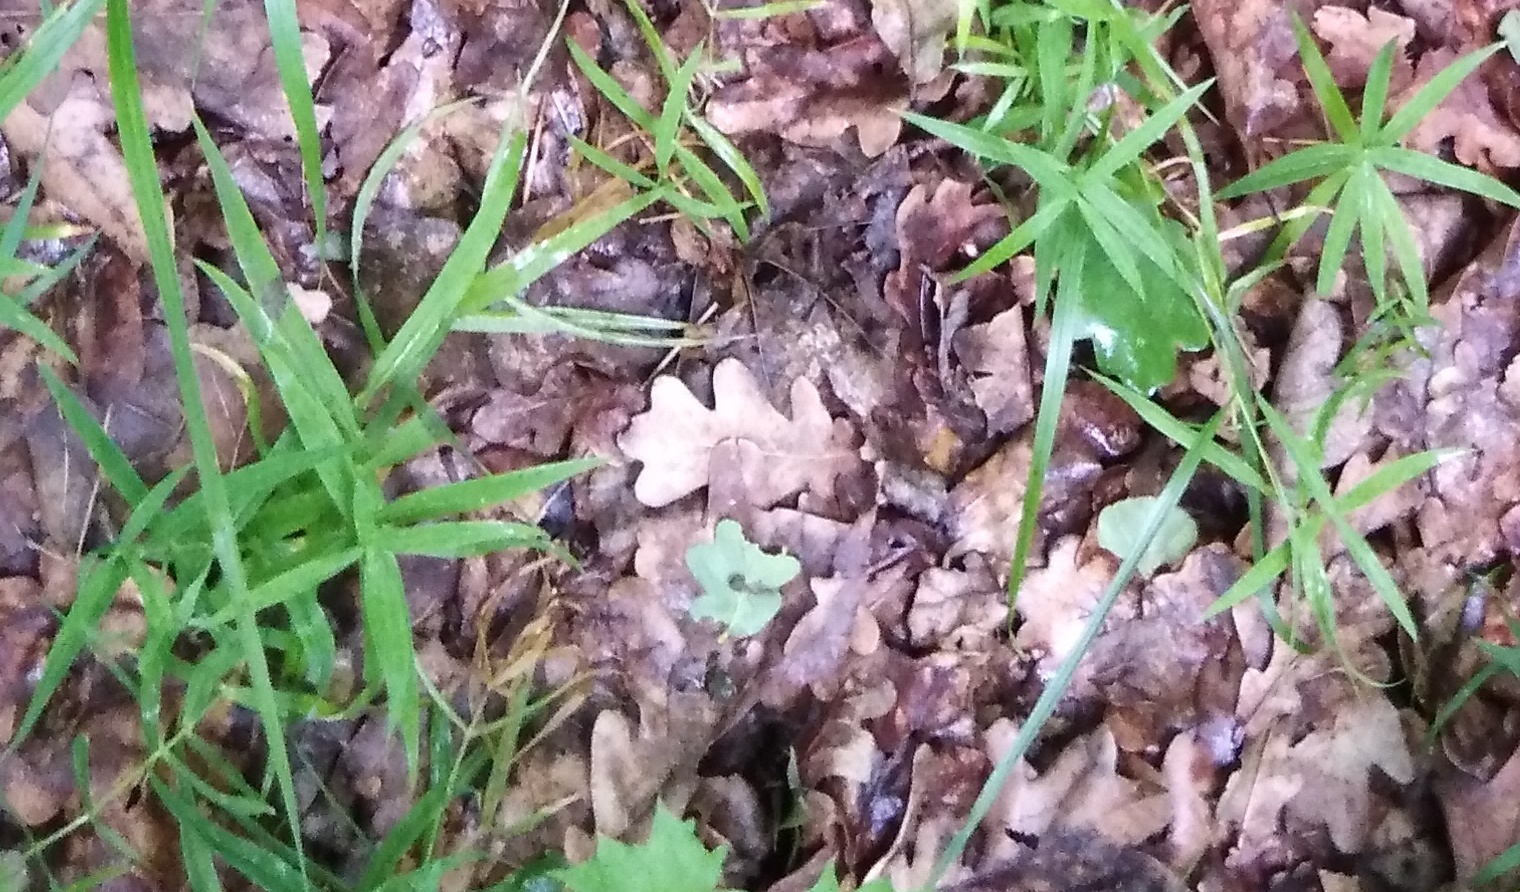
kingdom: Plantae
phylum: Tracheophyta
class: Magnoliopsida
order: Caryophyllales
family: Caryophyllaceae
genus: Rabelera
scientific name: Rabelera holostea
